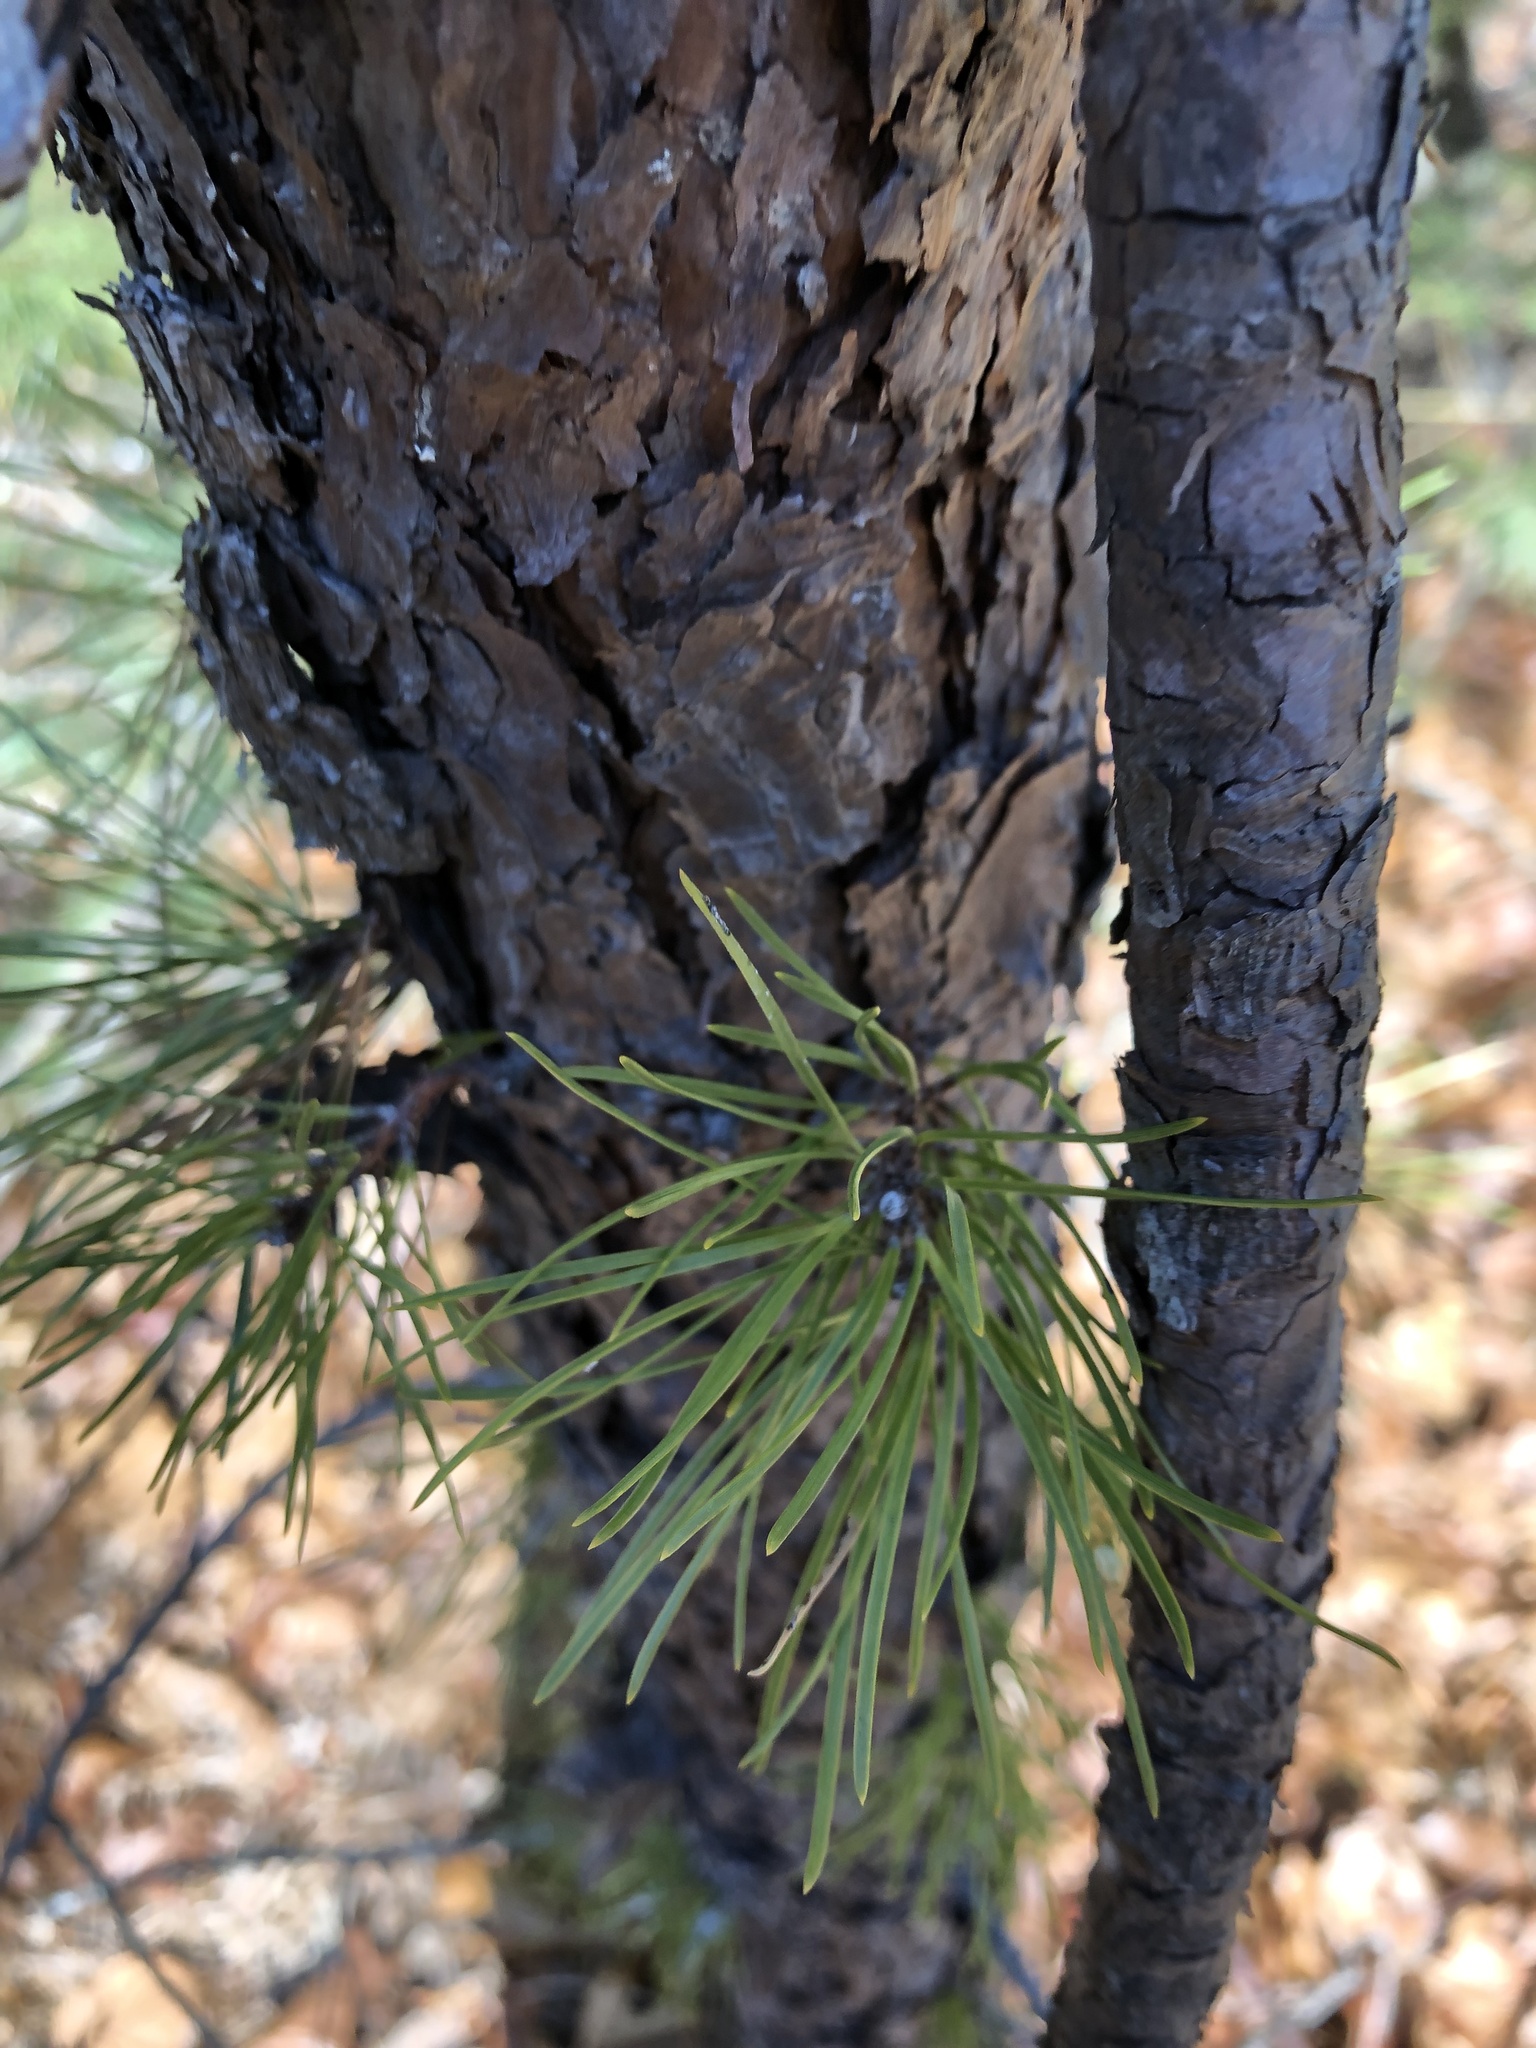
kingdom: Plantae
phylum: Tracheophyta
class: Pinopsida
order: Pinales
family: Pinaceae
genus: Pinus
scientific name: Pinus rigida
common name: Pitch pine
